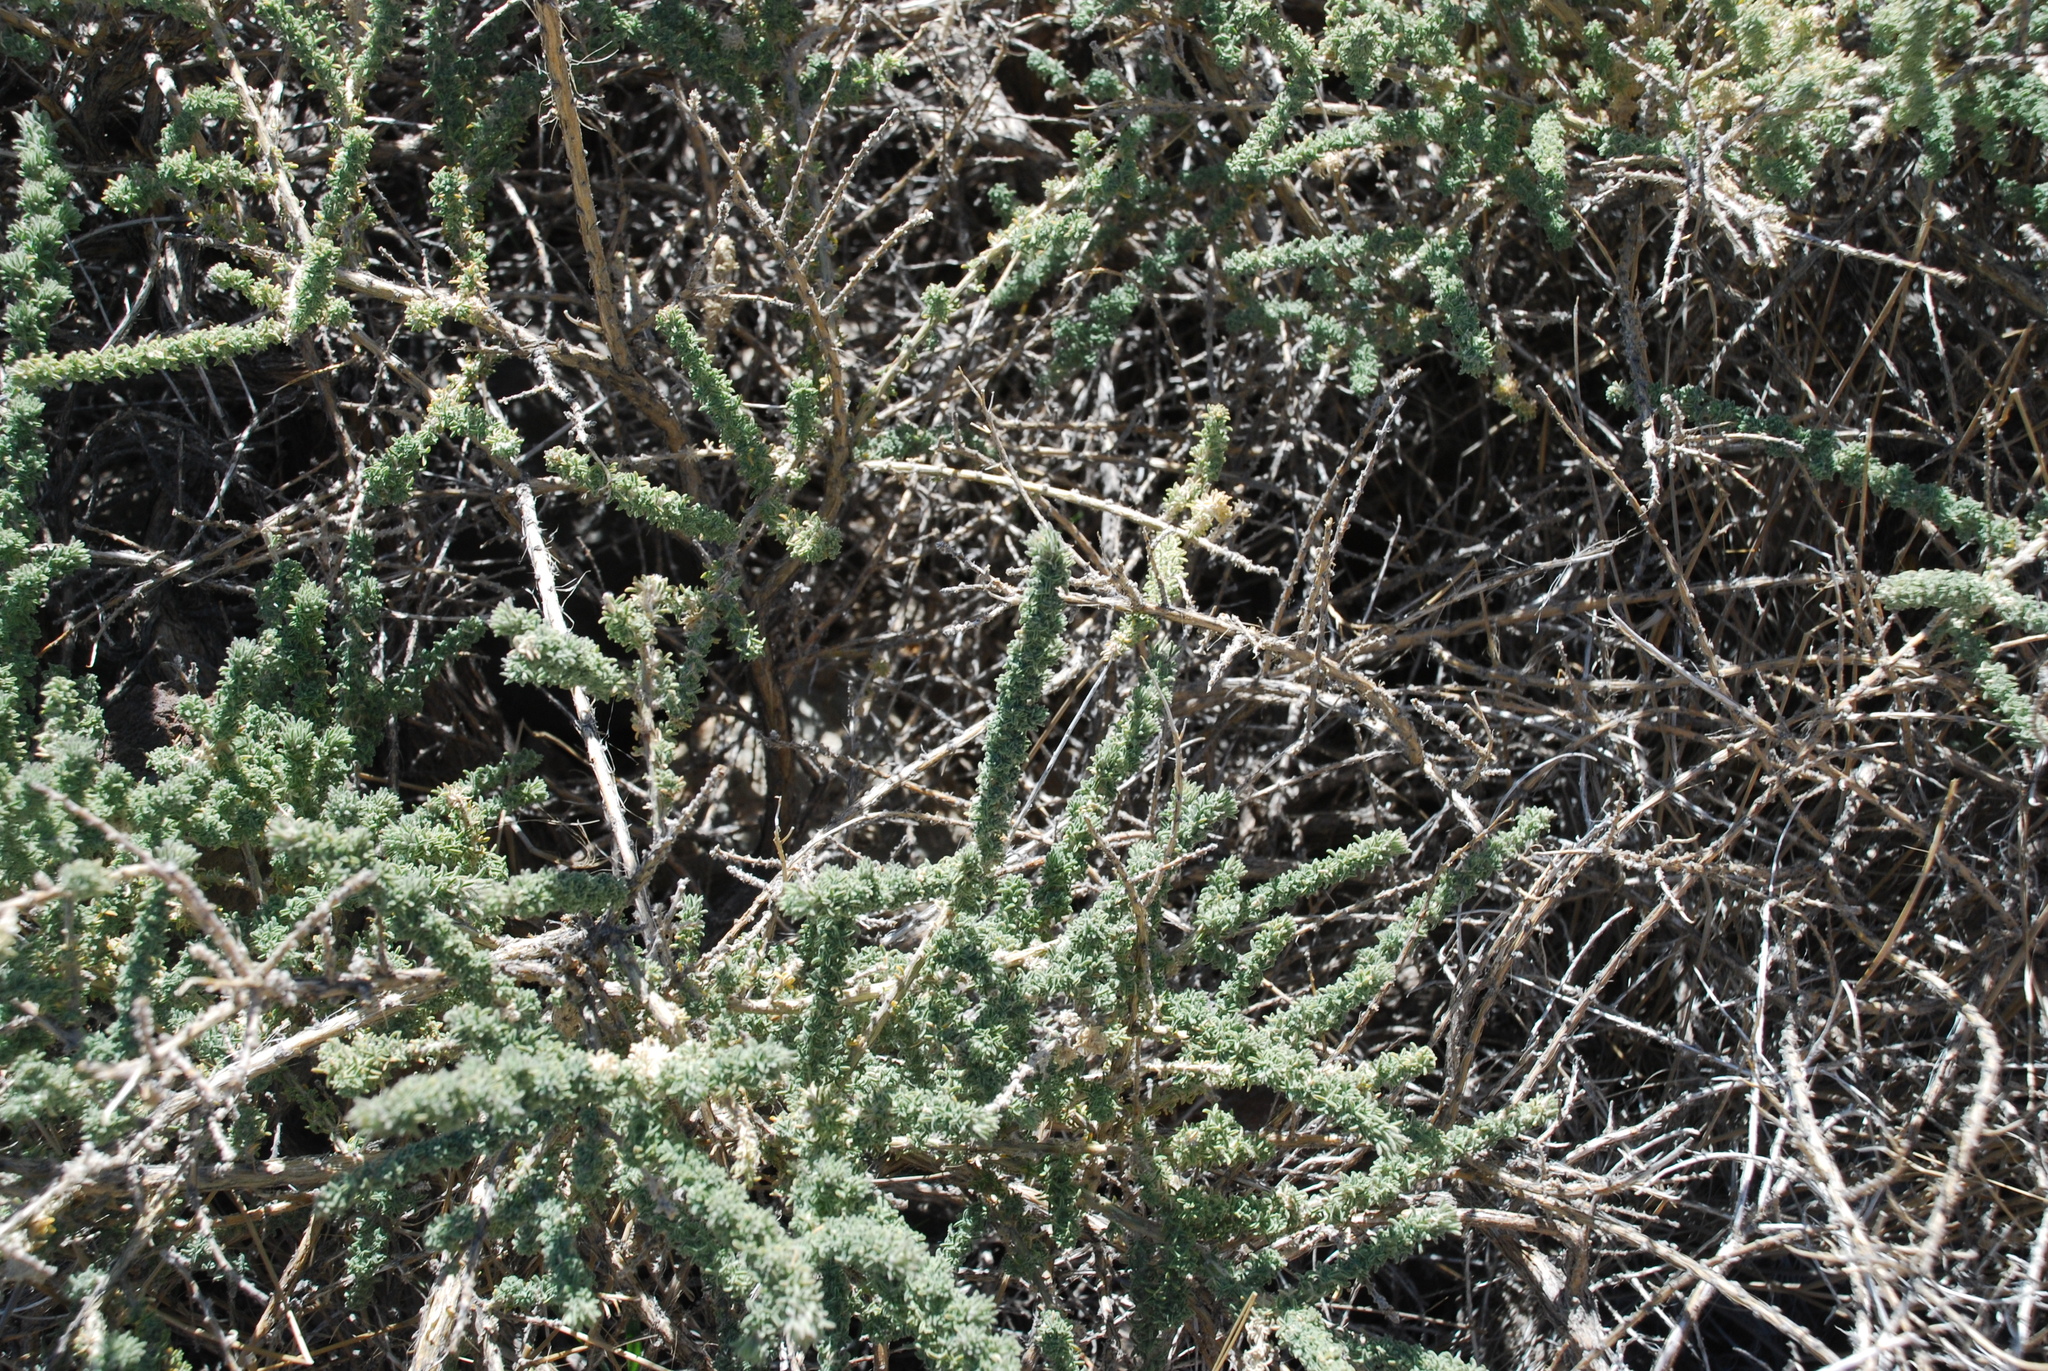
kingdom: Plantae
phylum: Tracheophyta
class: Magnoliopsida
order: Fabales
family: Fabaceae
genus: Adenocarpus
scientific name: Adenocarpus viscosus
